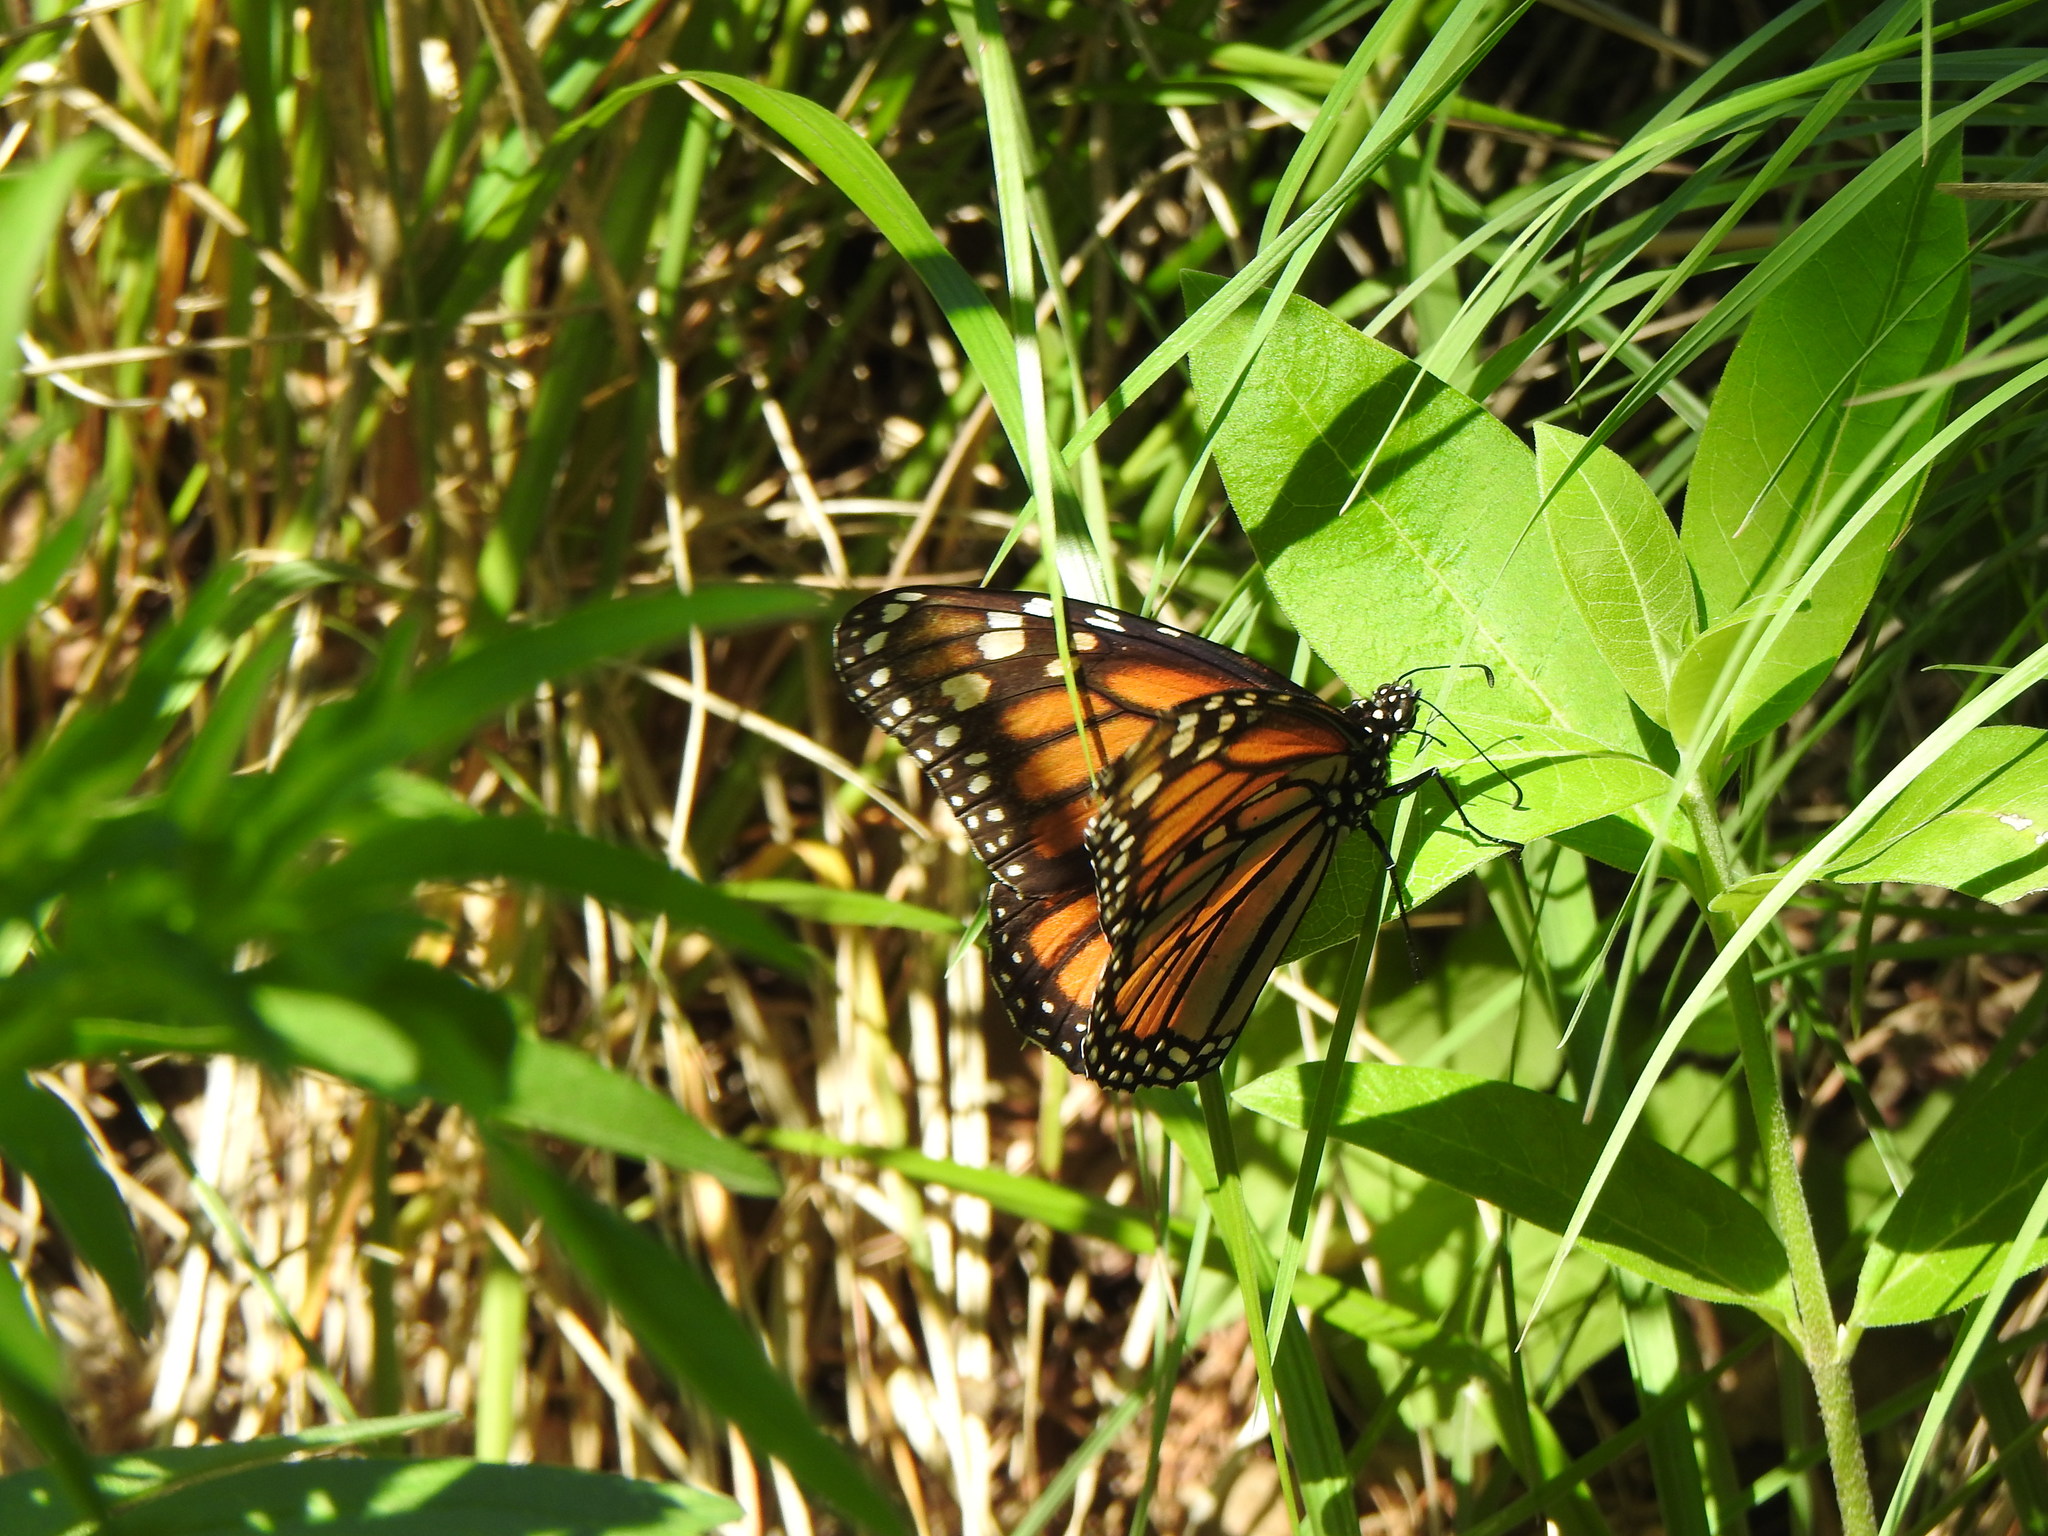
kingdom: Animalia
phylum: Arthropoda
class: Insecta
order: Lepidoptera
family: Nymphalidae
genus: Danaus
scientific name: Danaus plexippus
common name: Monarch
